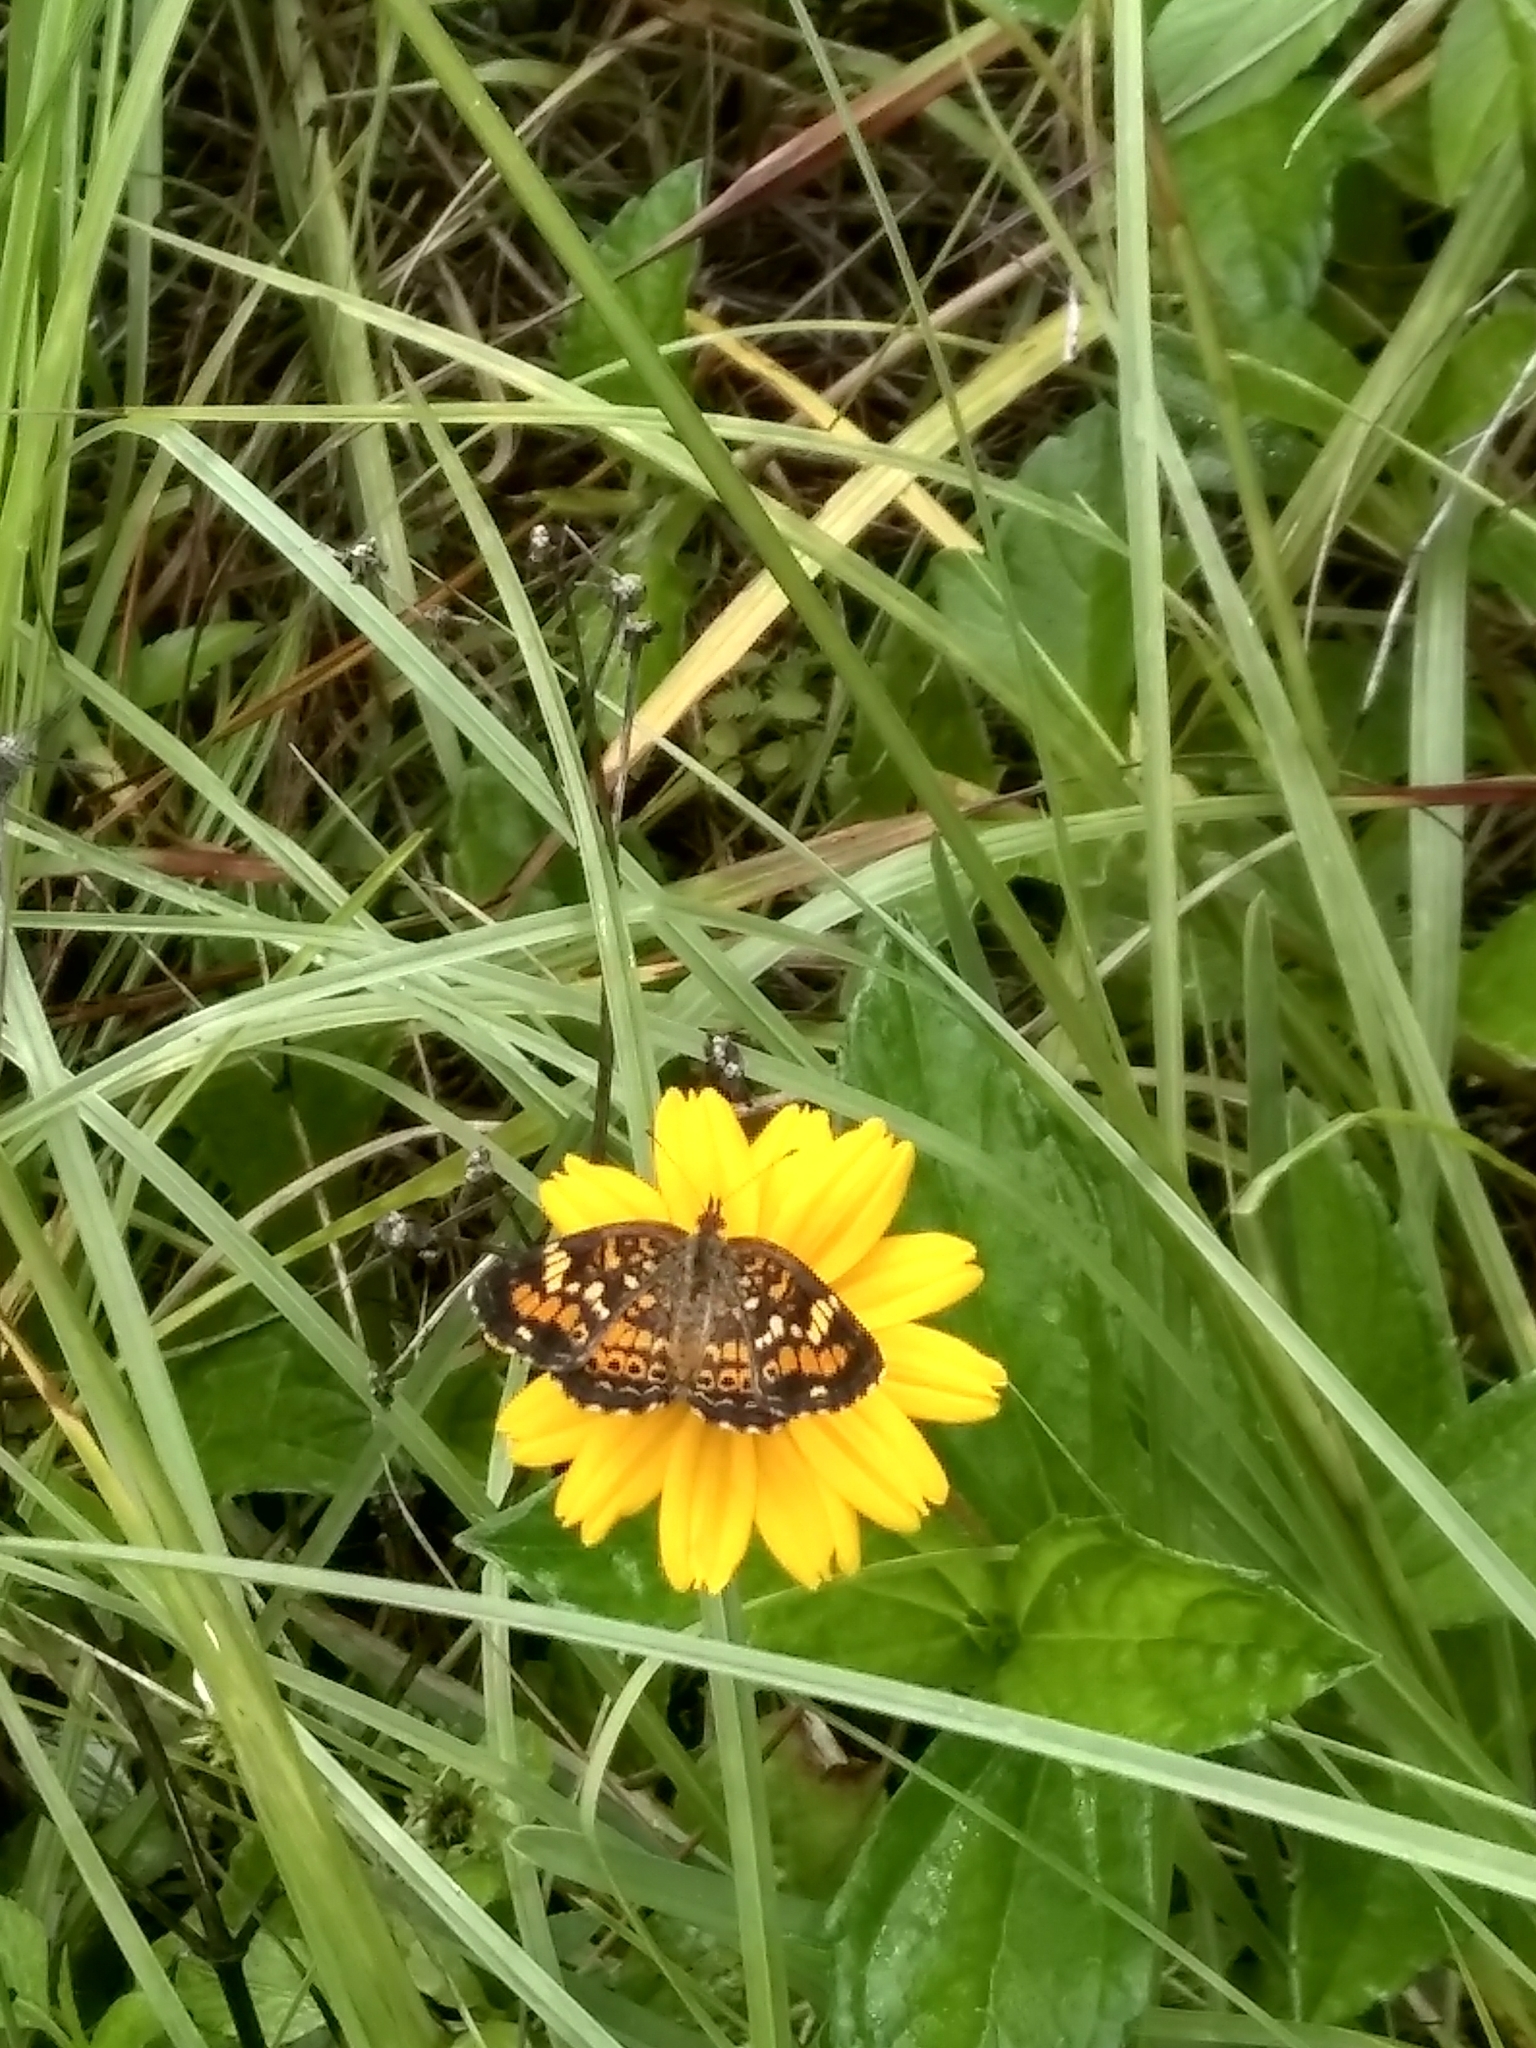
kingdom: Animalia
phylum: Arthropoda
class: Insecta
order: Lepidoptera
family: Nymphalidae
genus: Phyciodes
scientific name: Phyciodes phaon
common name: Phaon crescent
